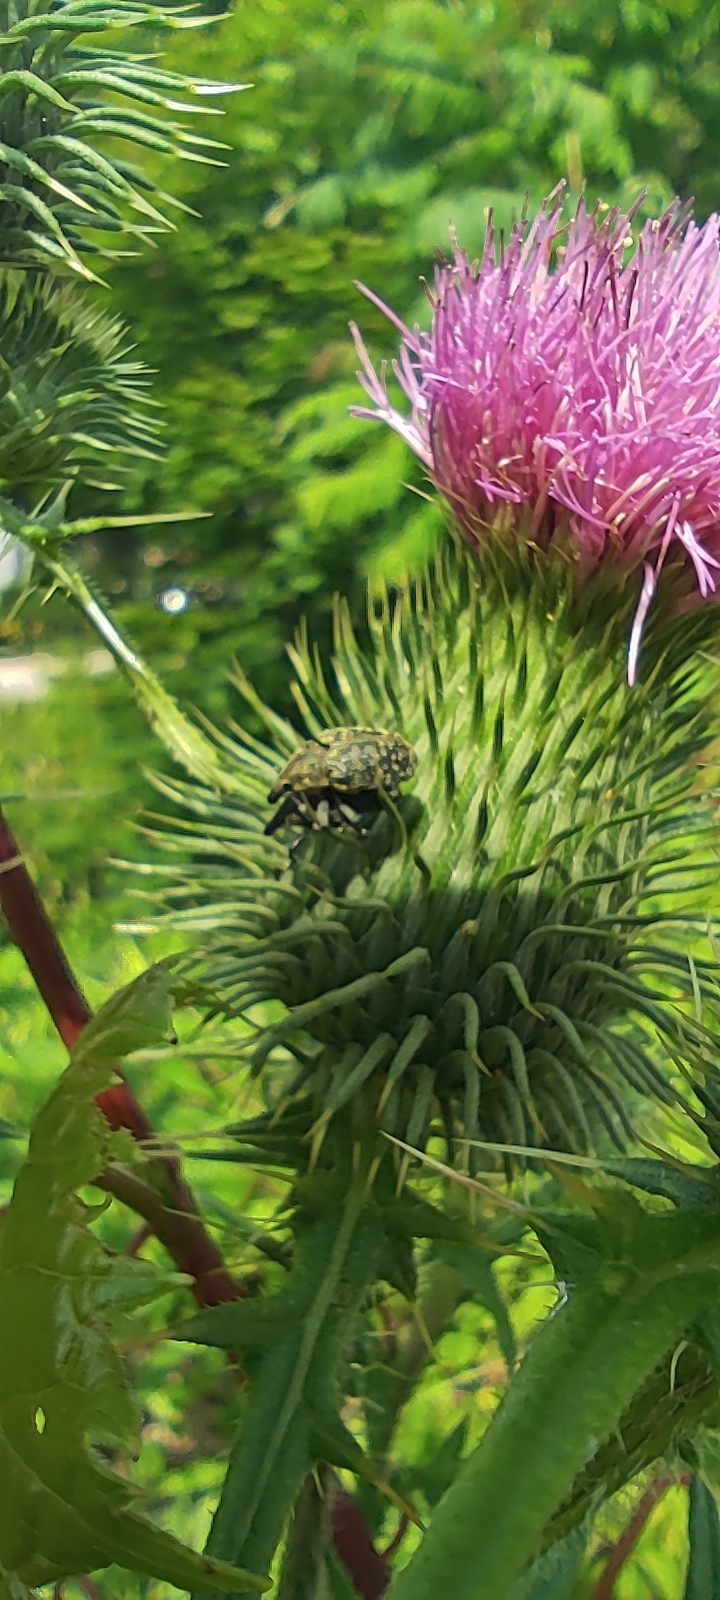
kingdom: Animalia
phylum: Arthropoda
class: Insecta
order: Coleoptera
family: Curculionidae
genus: Larinus
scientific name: Larinus turbinatus
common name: Weevil
